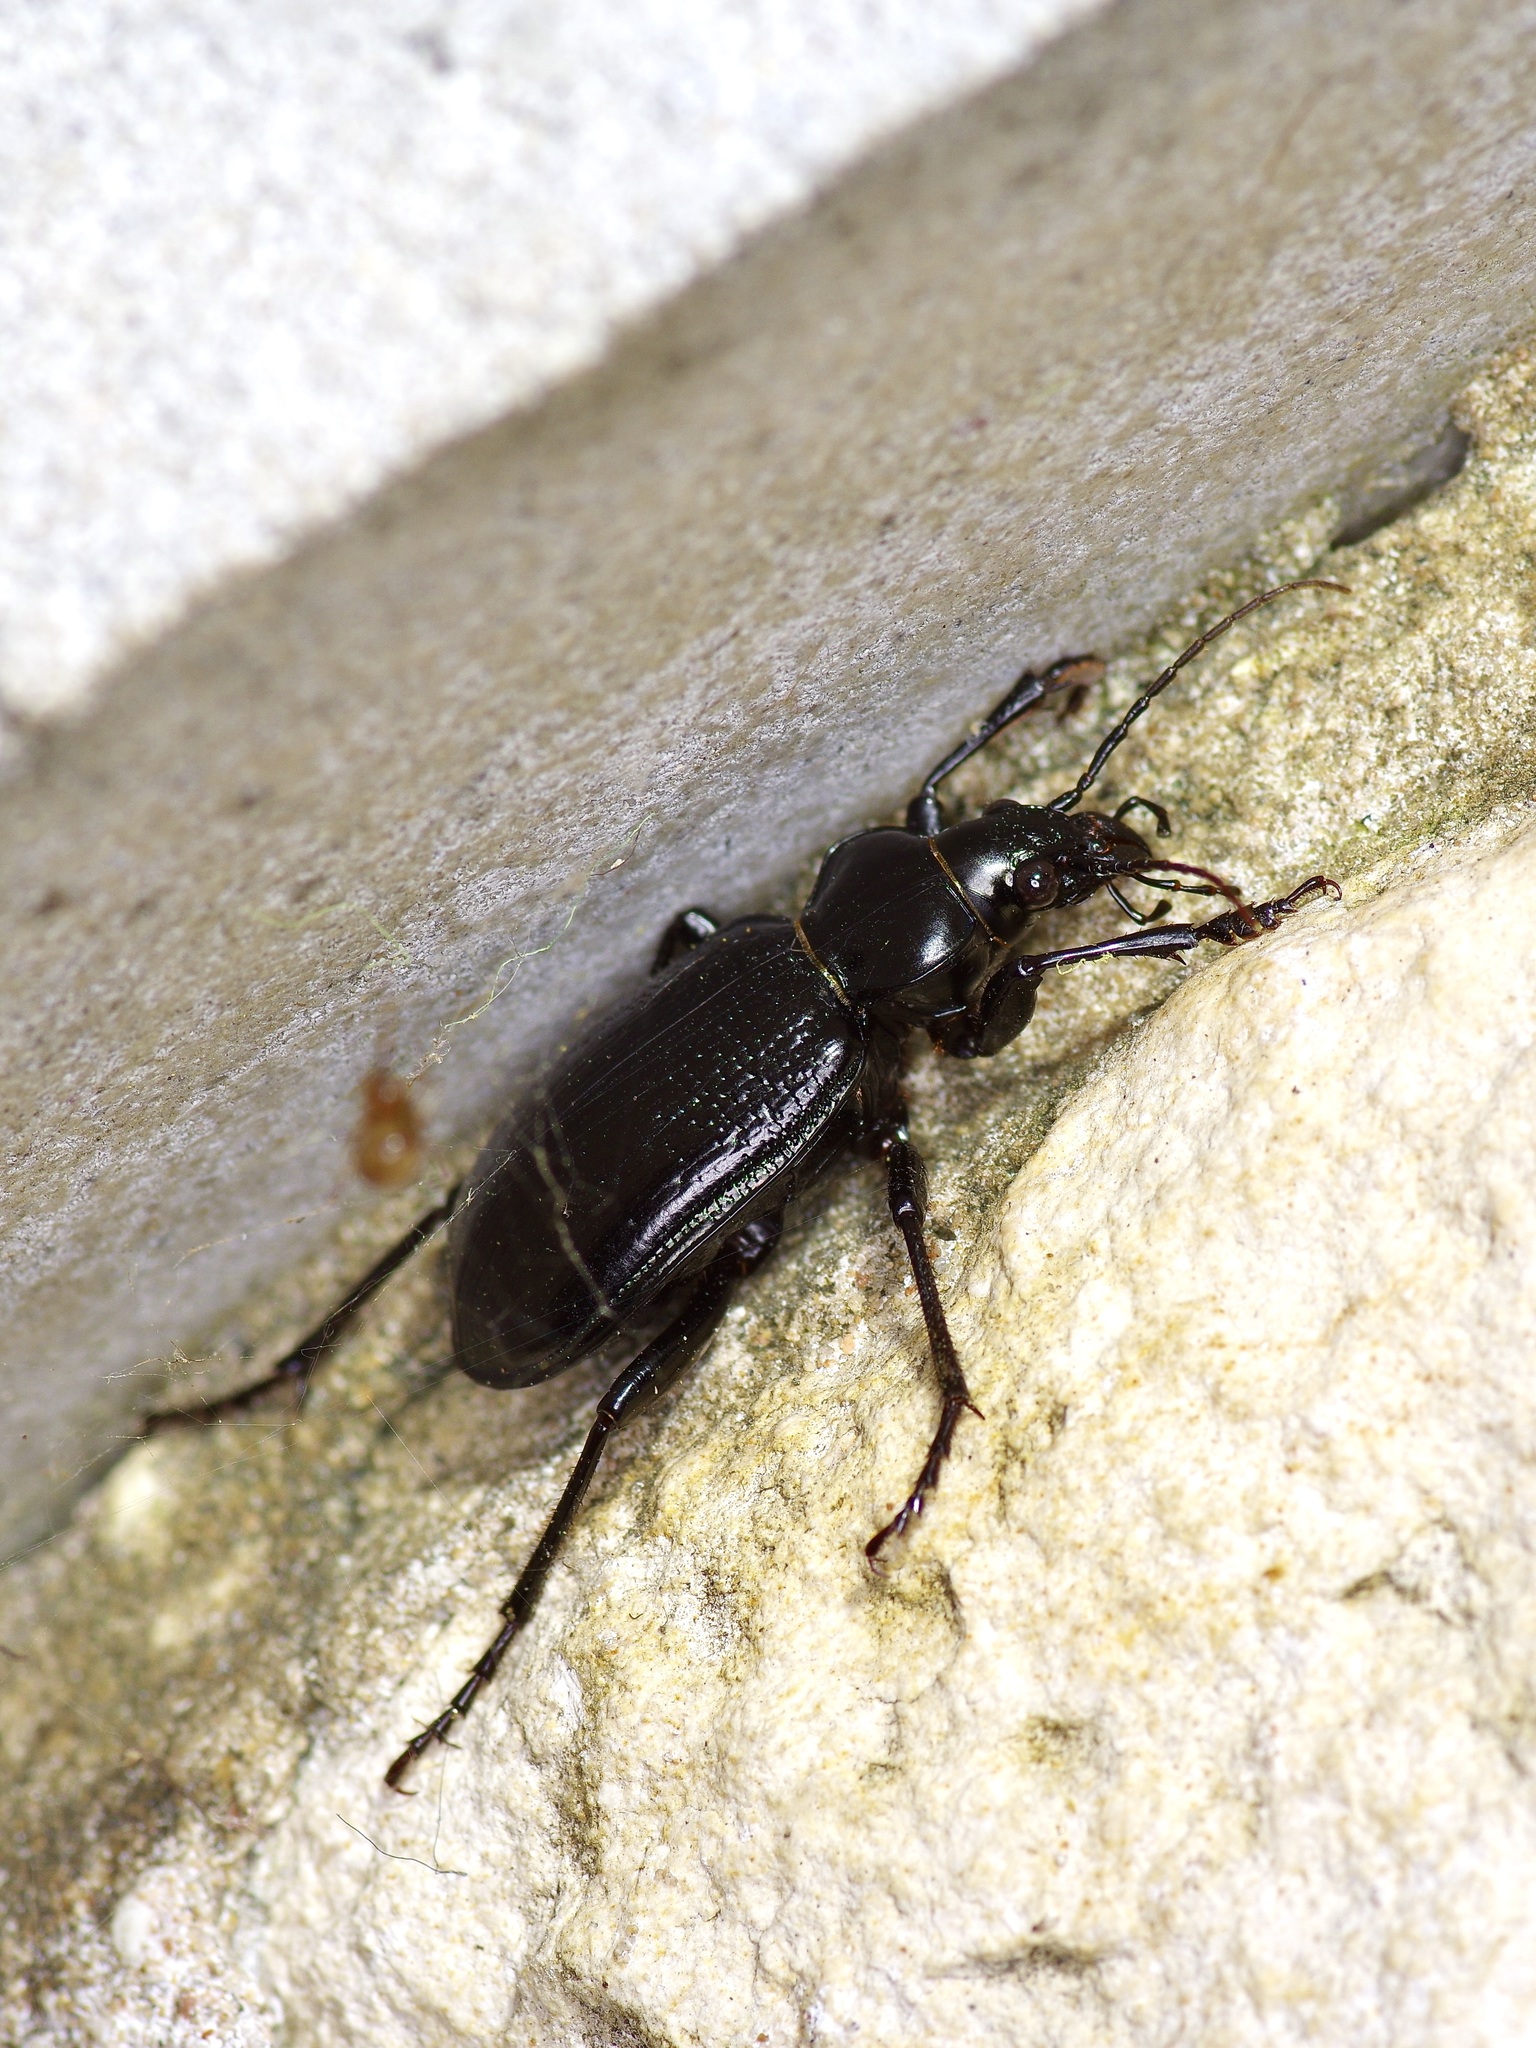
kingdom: Animalia
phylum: Arthropoda
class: Insecta
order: Coleoptera
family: Carabidae
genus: Calosoma
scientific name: Calosoma marginale
